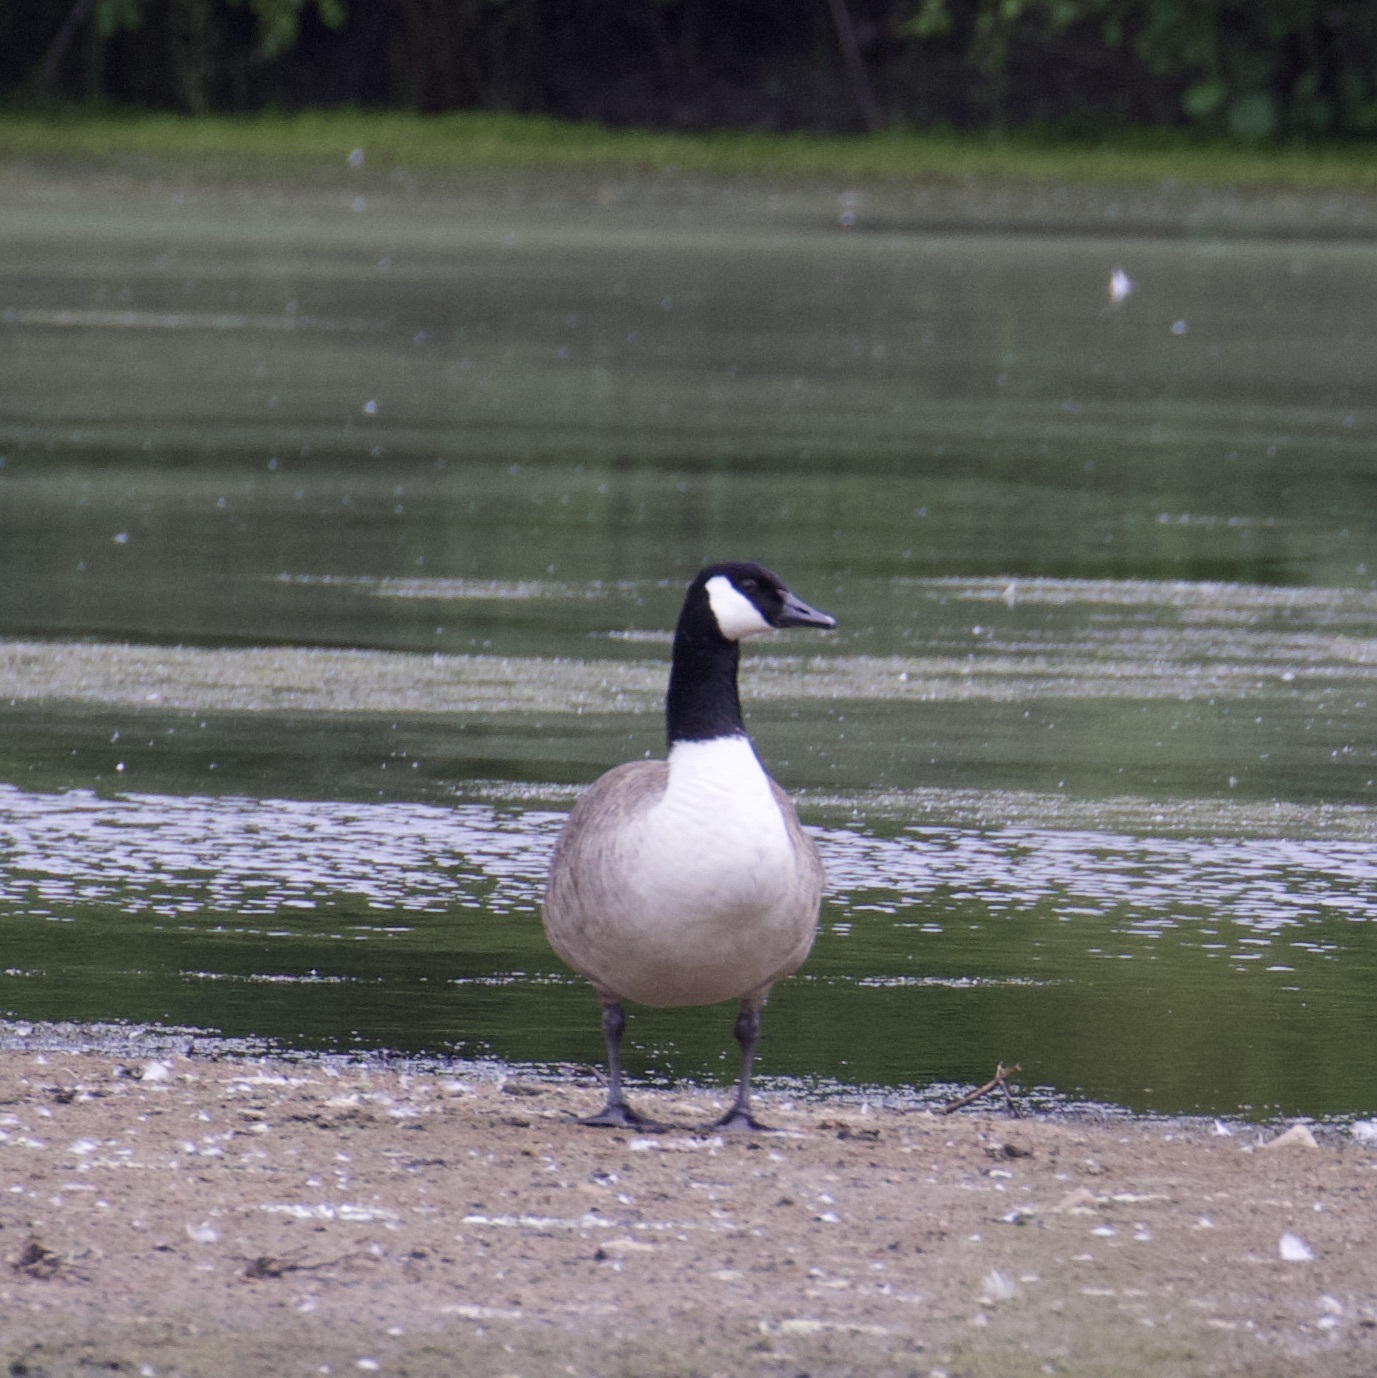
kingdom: Animalia
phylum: Chordata
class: Aves
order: Anseriformes
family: Anatidae
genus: Branta
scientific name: Branta canadensis
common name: Canada goose
